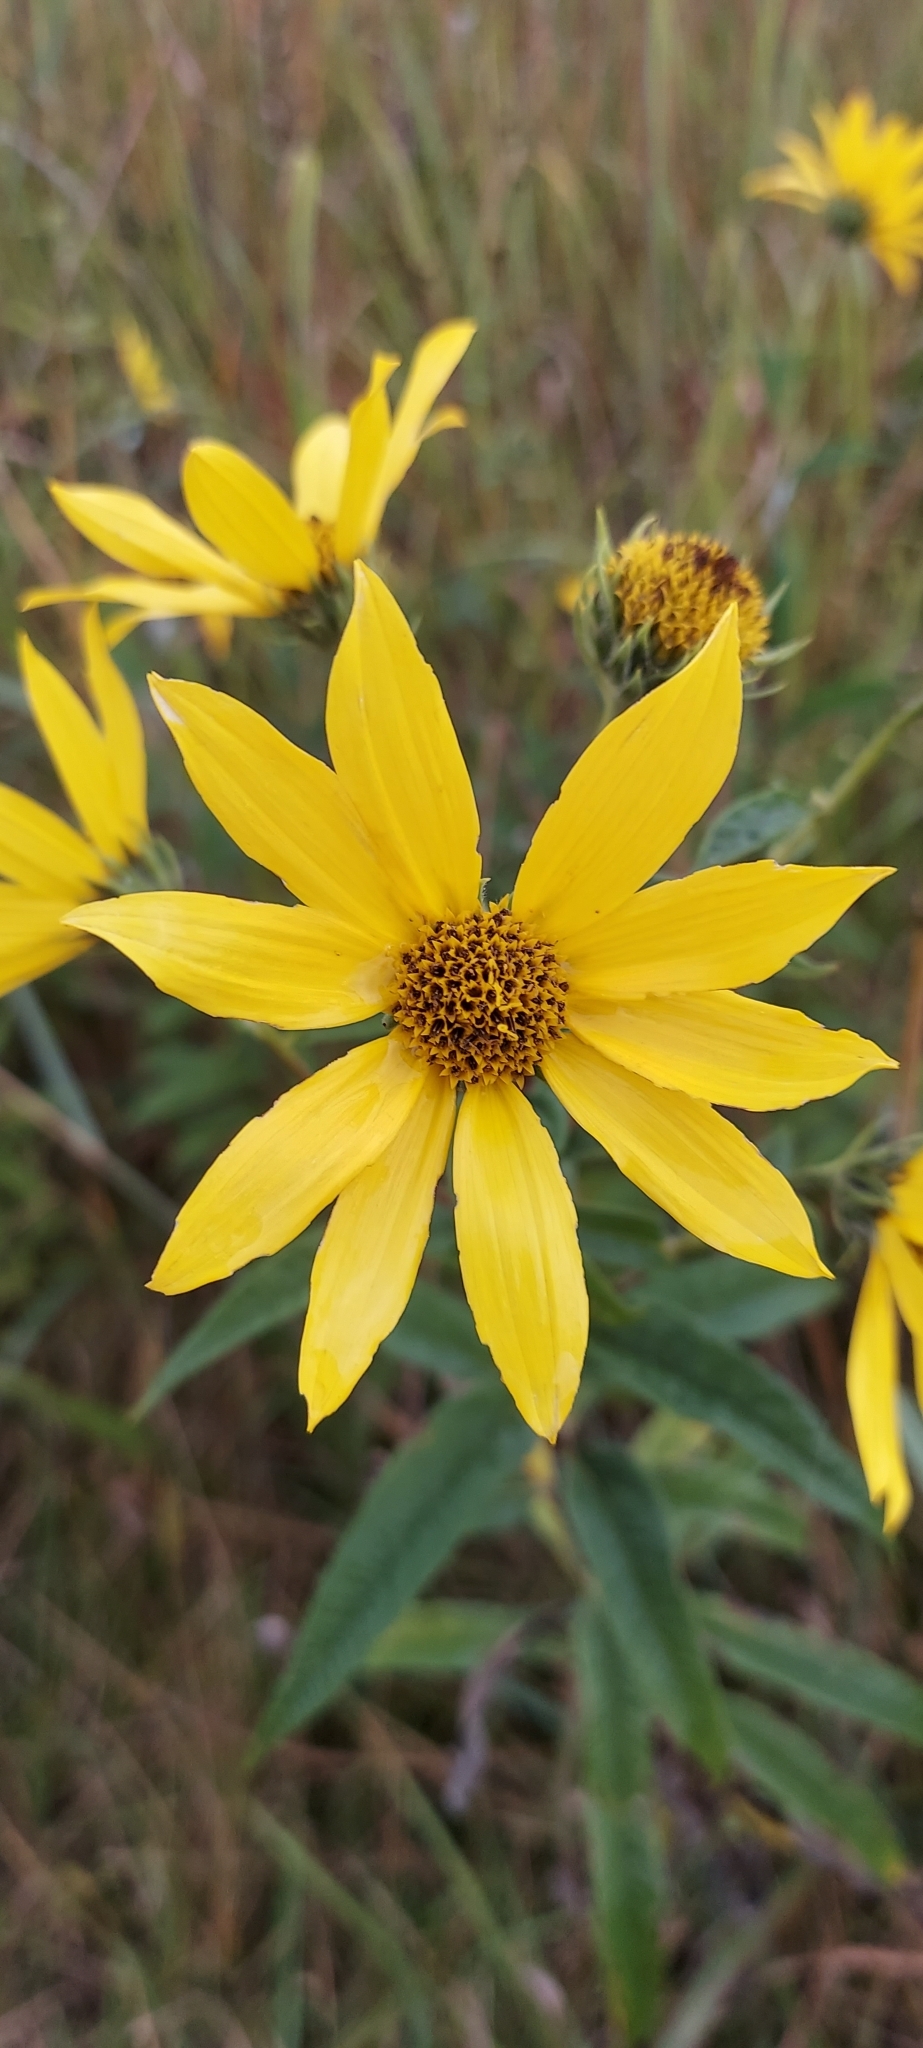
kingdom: Plantae
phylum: Tracheophyta
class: Magnoliopsida
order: Asterales
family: Asteraceae
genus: Helianthus
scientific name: Helianthus giganteus
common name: Giant sunflower
